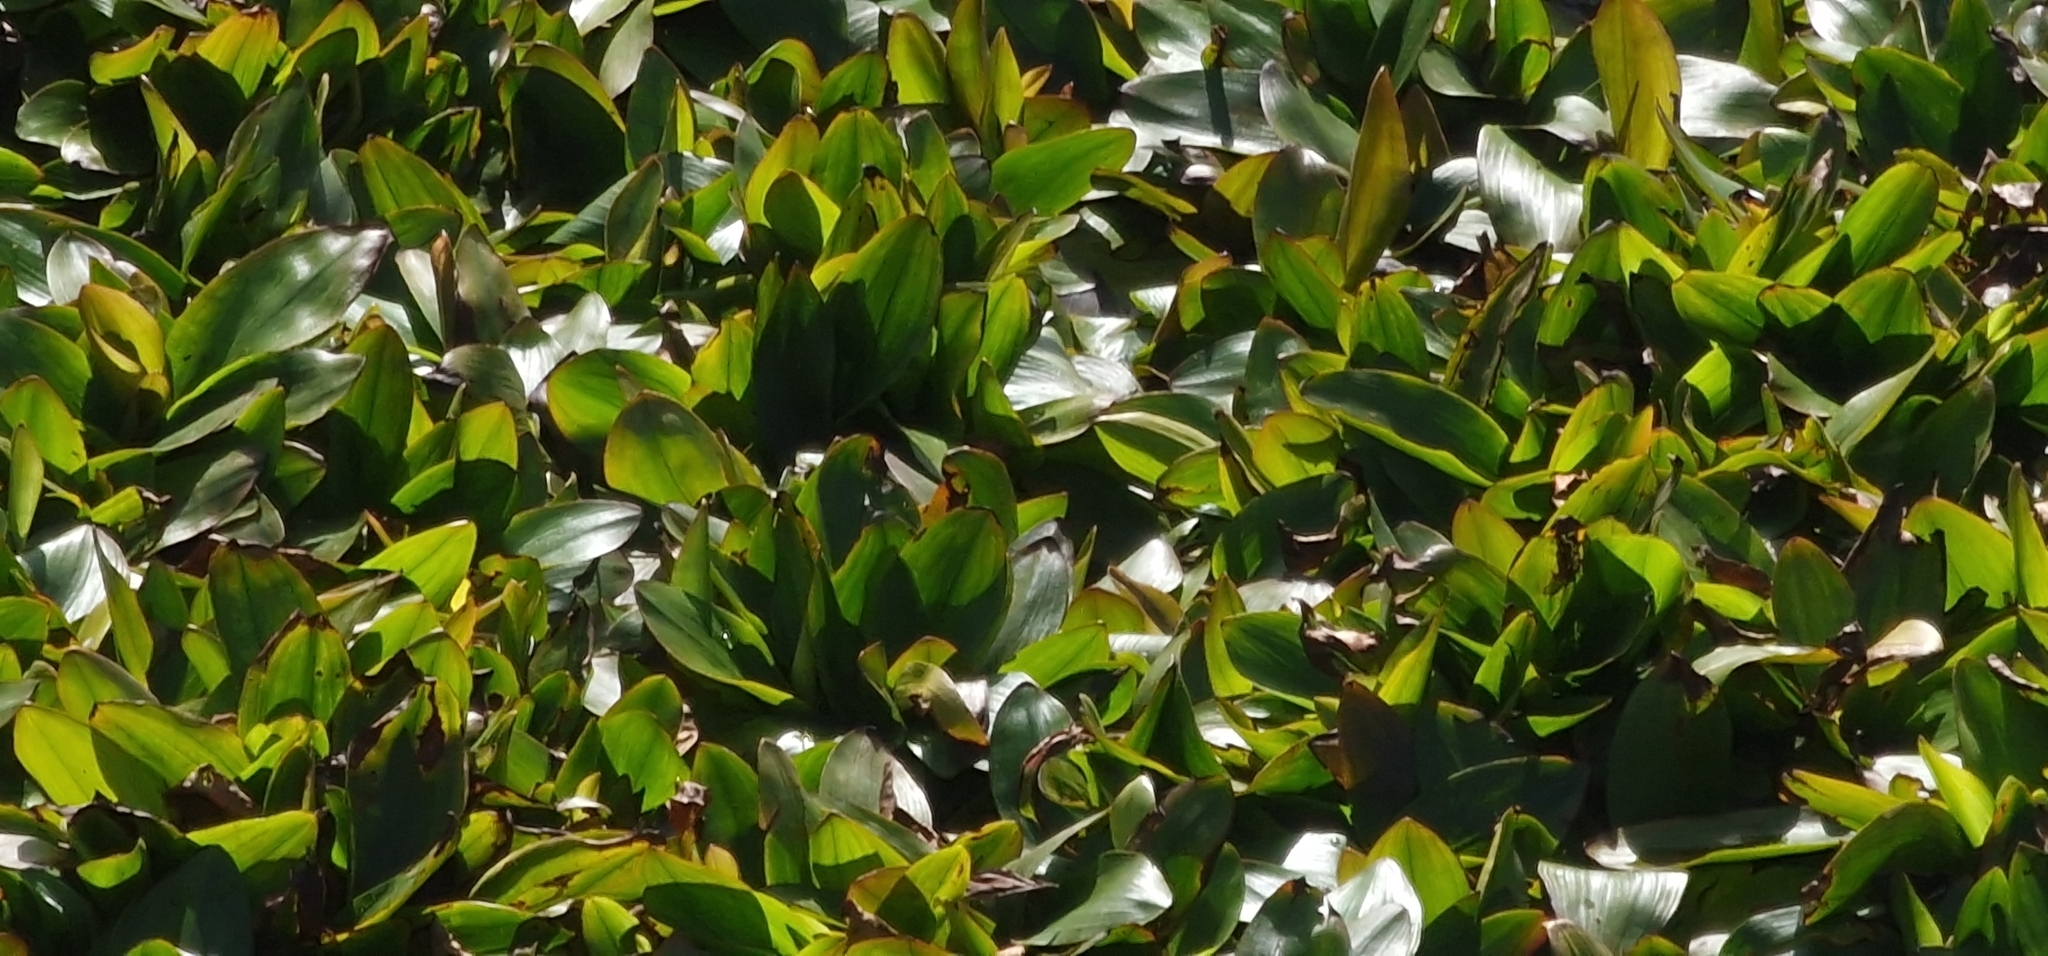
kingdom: Plantae
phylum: Tracheophyta
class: Liliopsida
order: Alismatales
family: Potamogetonaceae
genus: Potamogeton
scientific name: Potamogeton polygonifolius
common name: Bog pondweed
